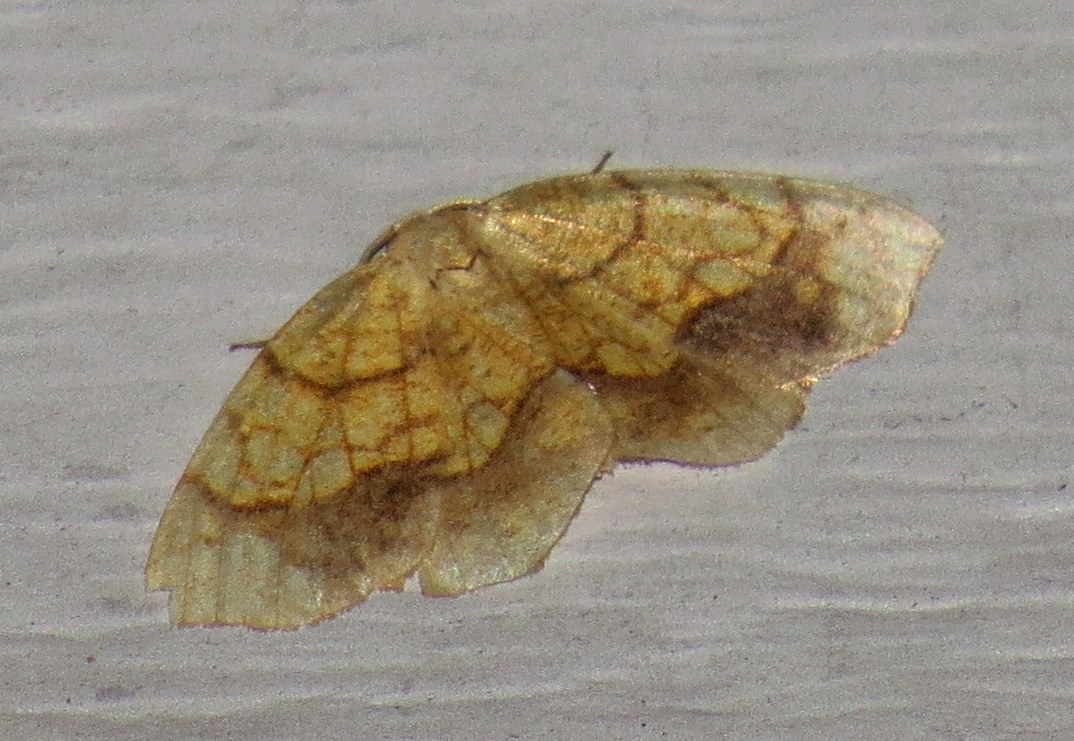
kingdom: Animalia
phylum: Arthropoda
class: Insecta
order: Lepidoptera
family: Geometridae
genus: Nematocampa
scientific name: Nematocampa resistaria
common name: Horned spanworm moth
